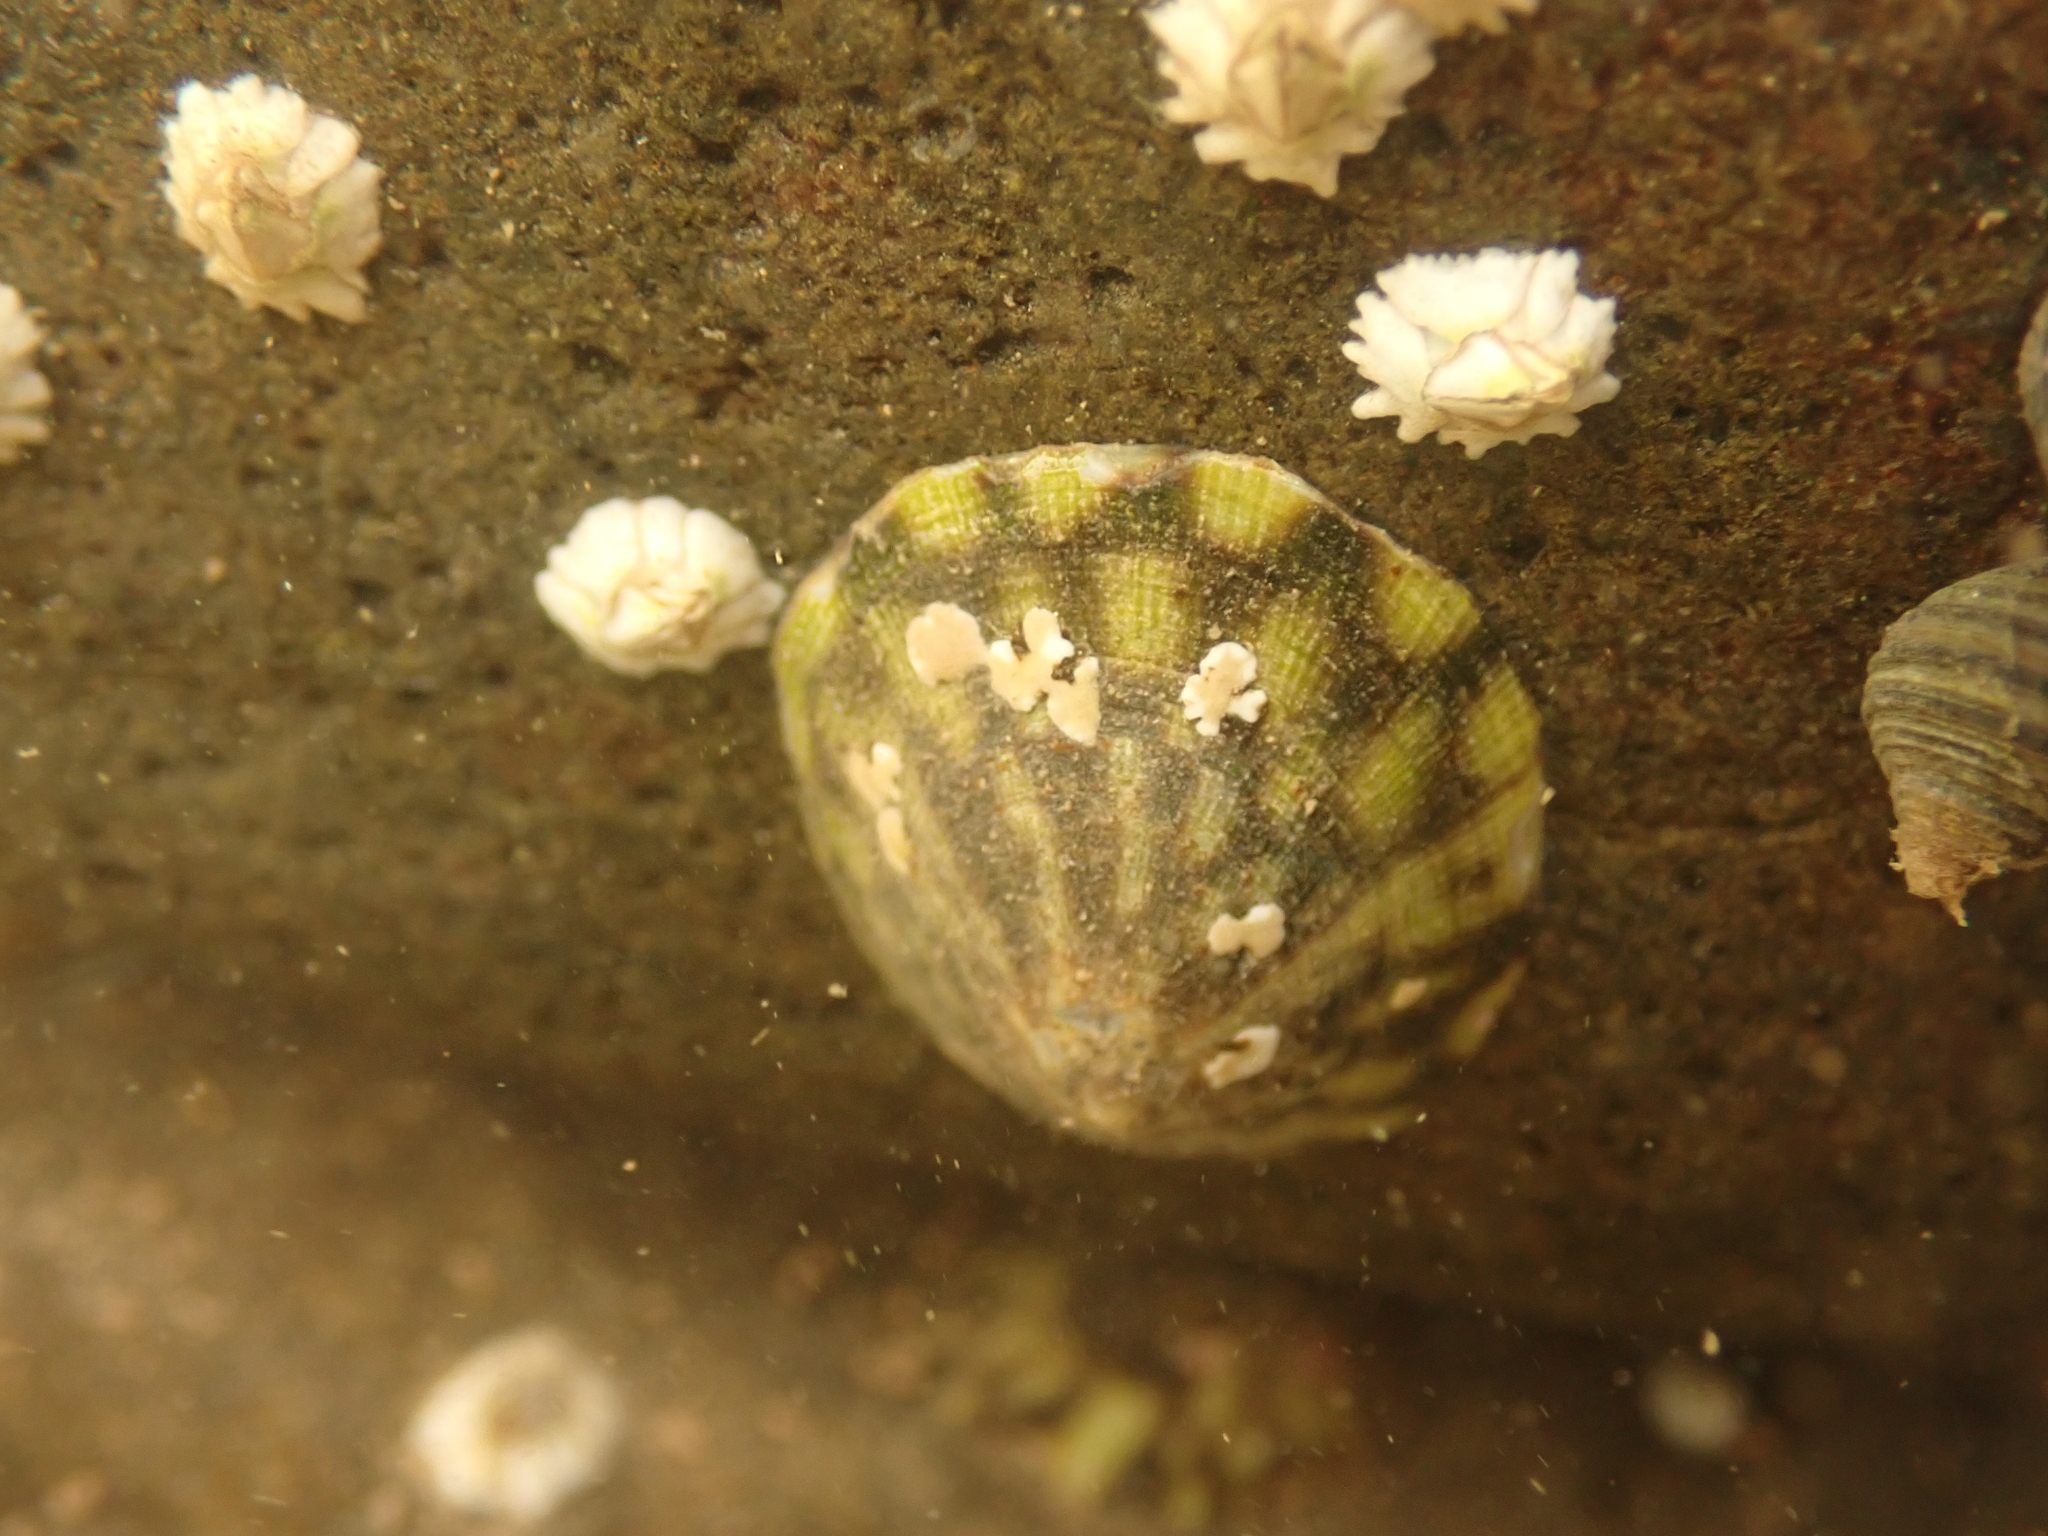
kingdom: Animalia
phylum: Mollusca
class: Gastropoda
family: Lottiidae
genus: Testudinalia
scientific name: Testudinalia testudinalis
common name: Common tortoiseshell limpet
